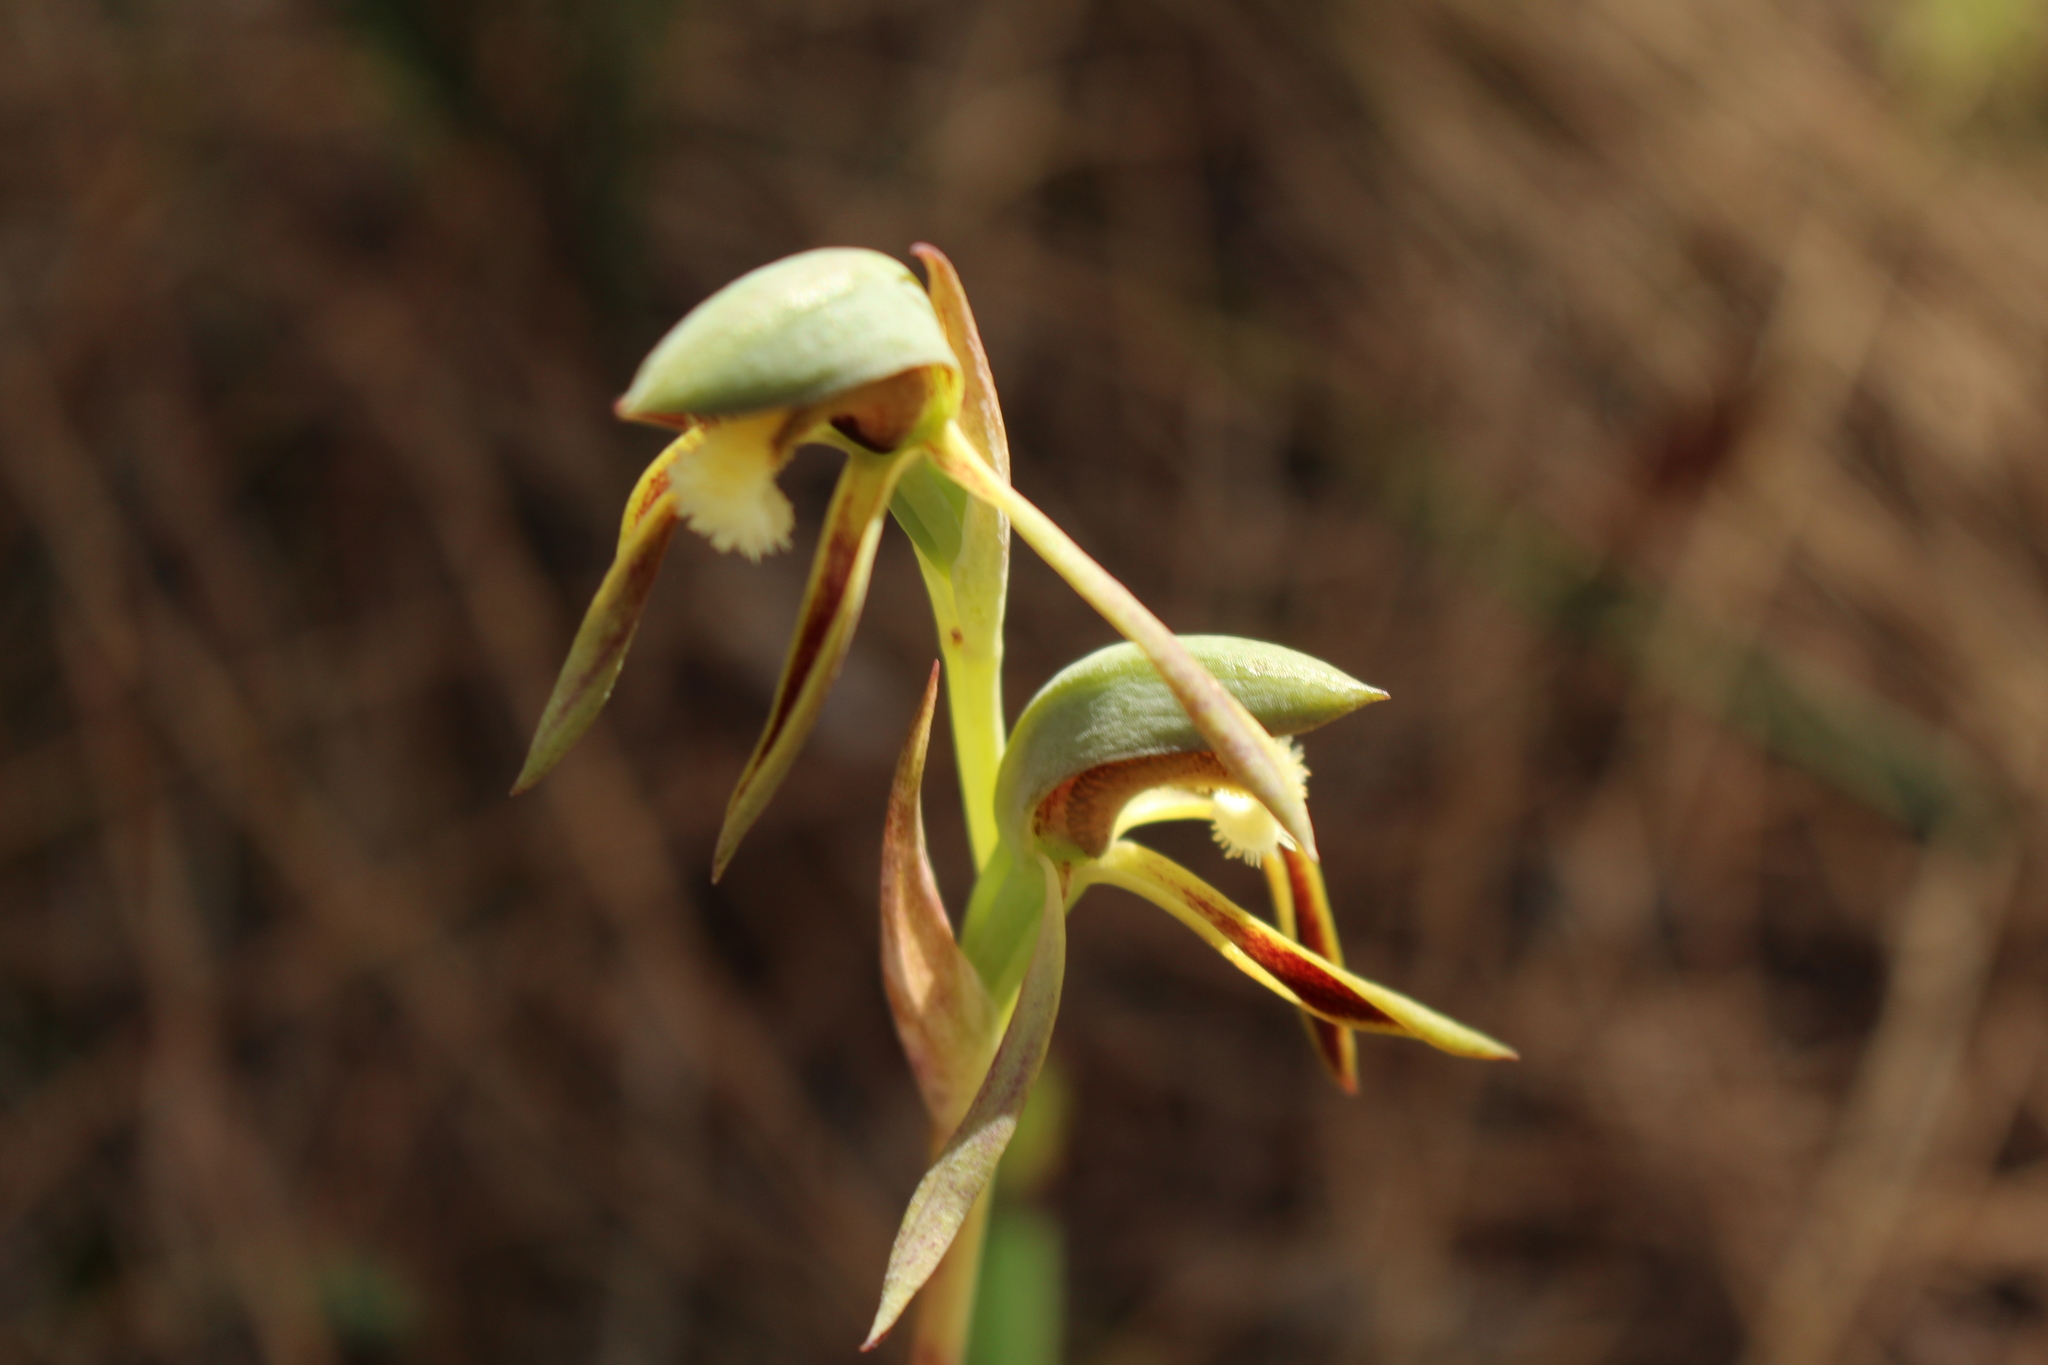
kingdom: Plantae
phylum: Tracheophyta
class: Liliopsida
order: Asparagales
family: Orchidaceae
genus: Lyperanthus
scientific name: Lyperanthus serratus
